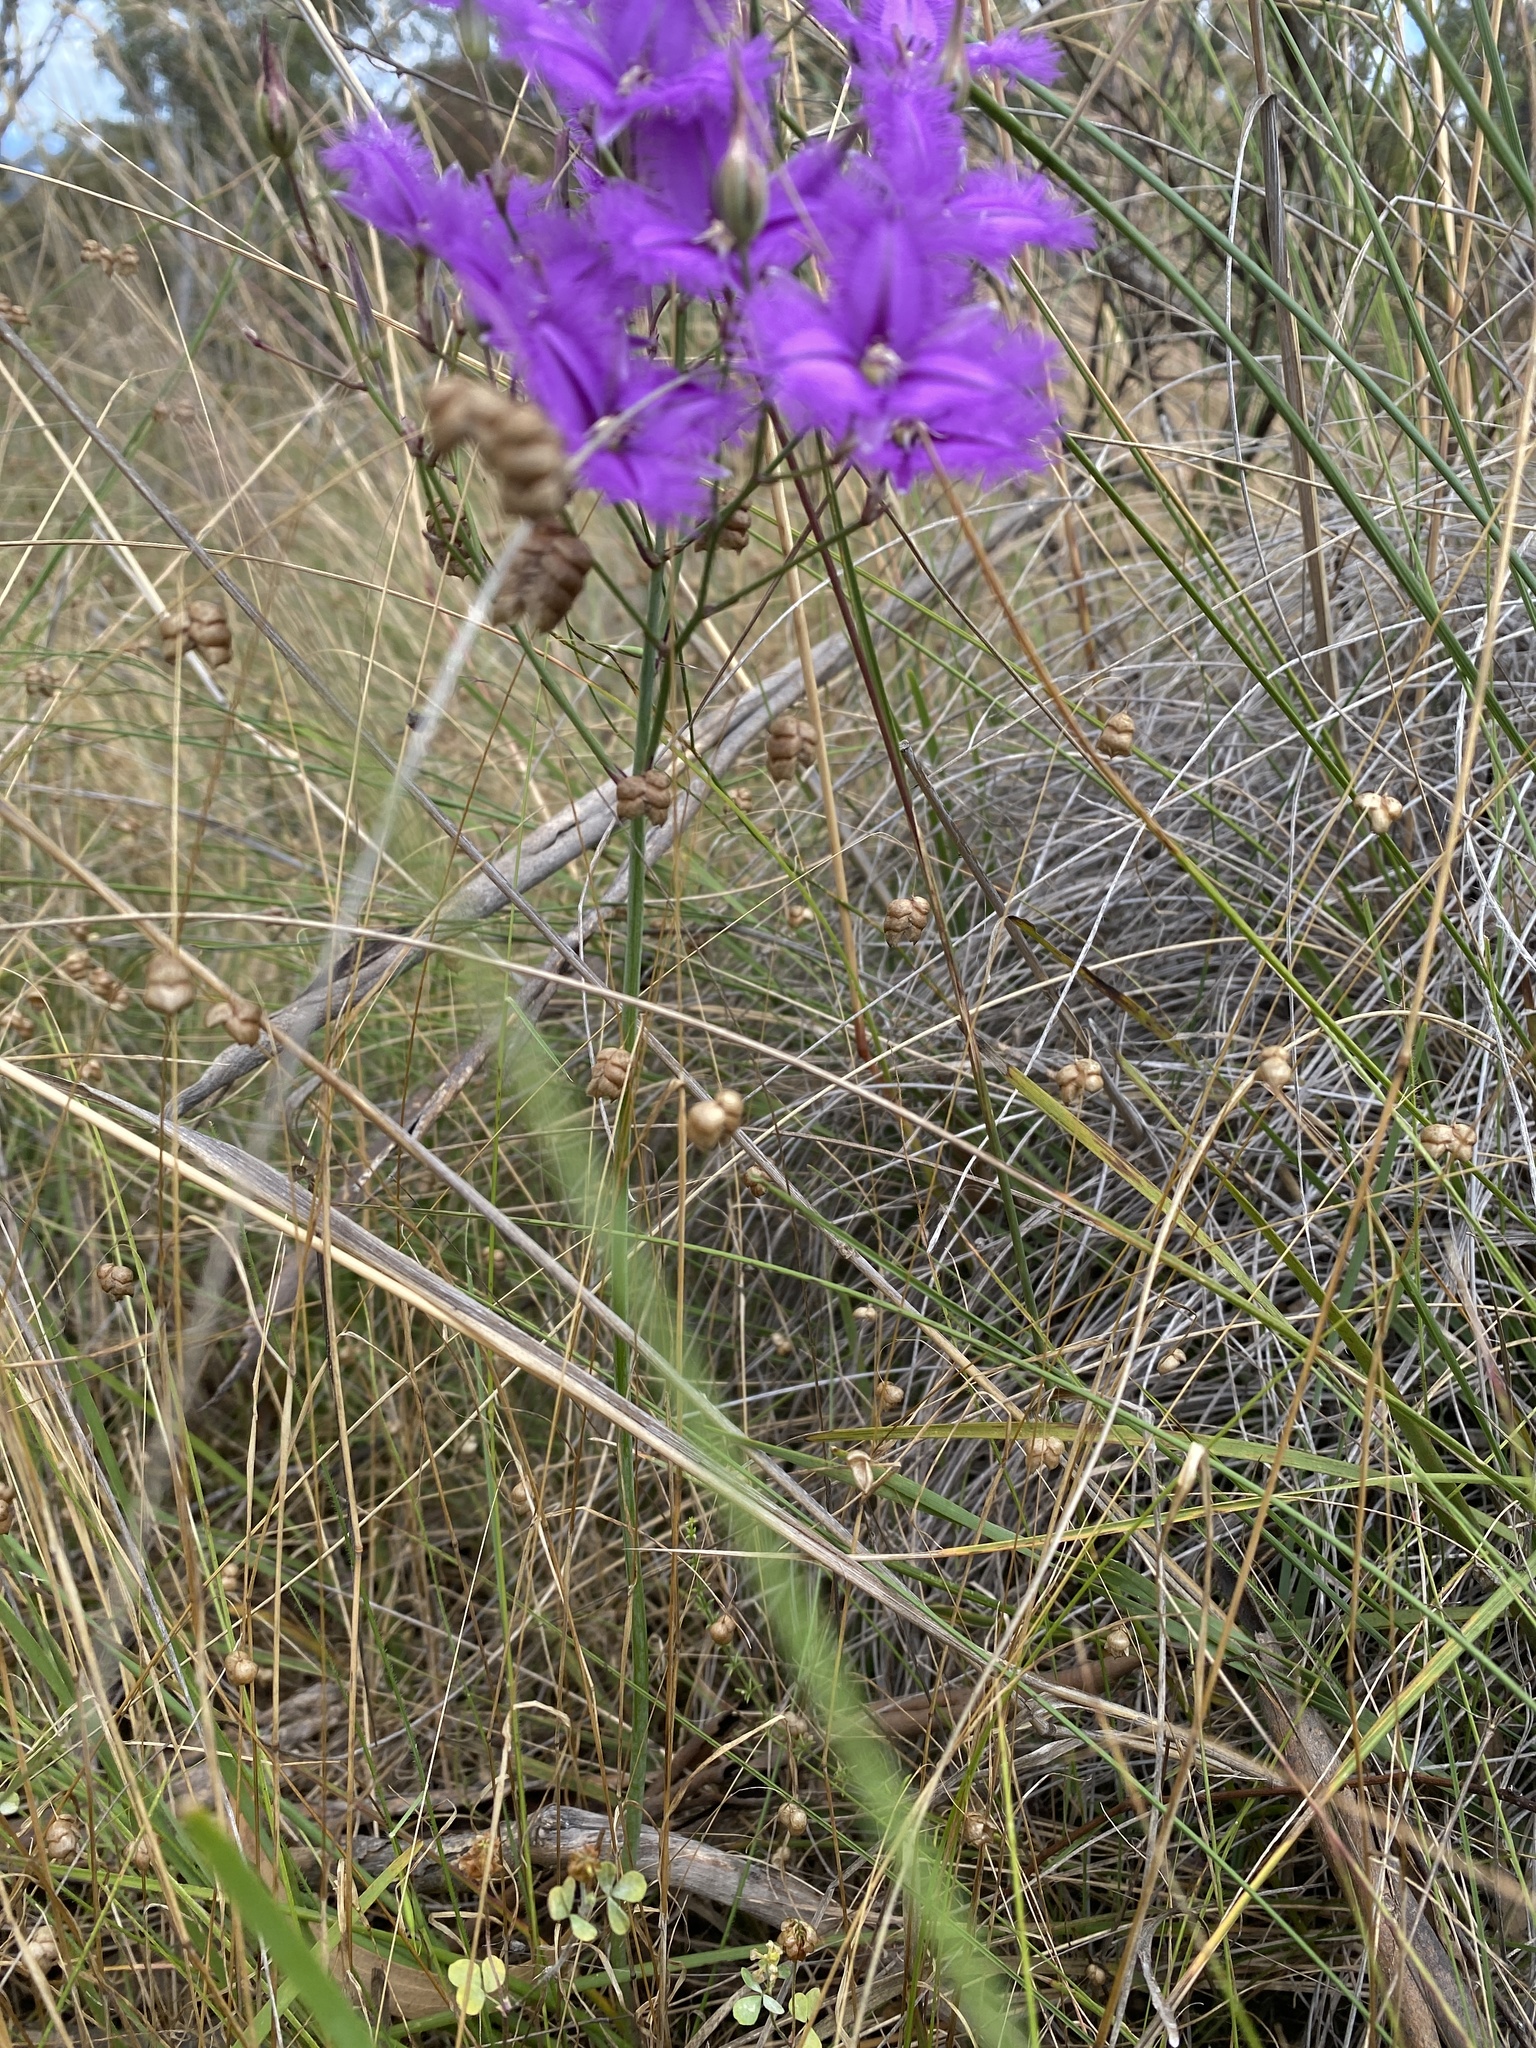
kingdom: Plantae
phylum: Tracheophyta
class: Liliopsida
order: Asparagales
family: Asparagaceae
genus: Thysanotus
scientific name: Thysanotus tuberosus
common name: Common fringed-lily
